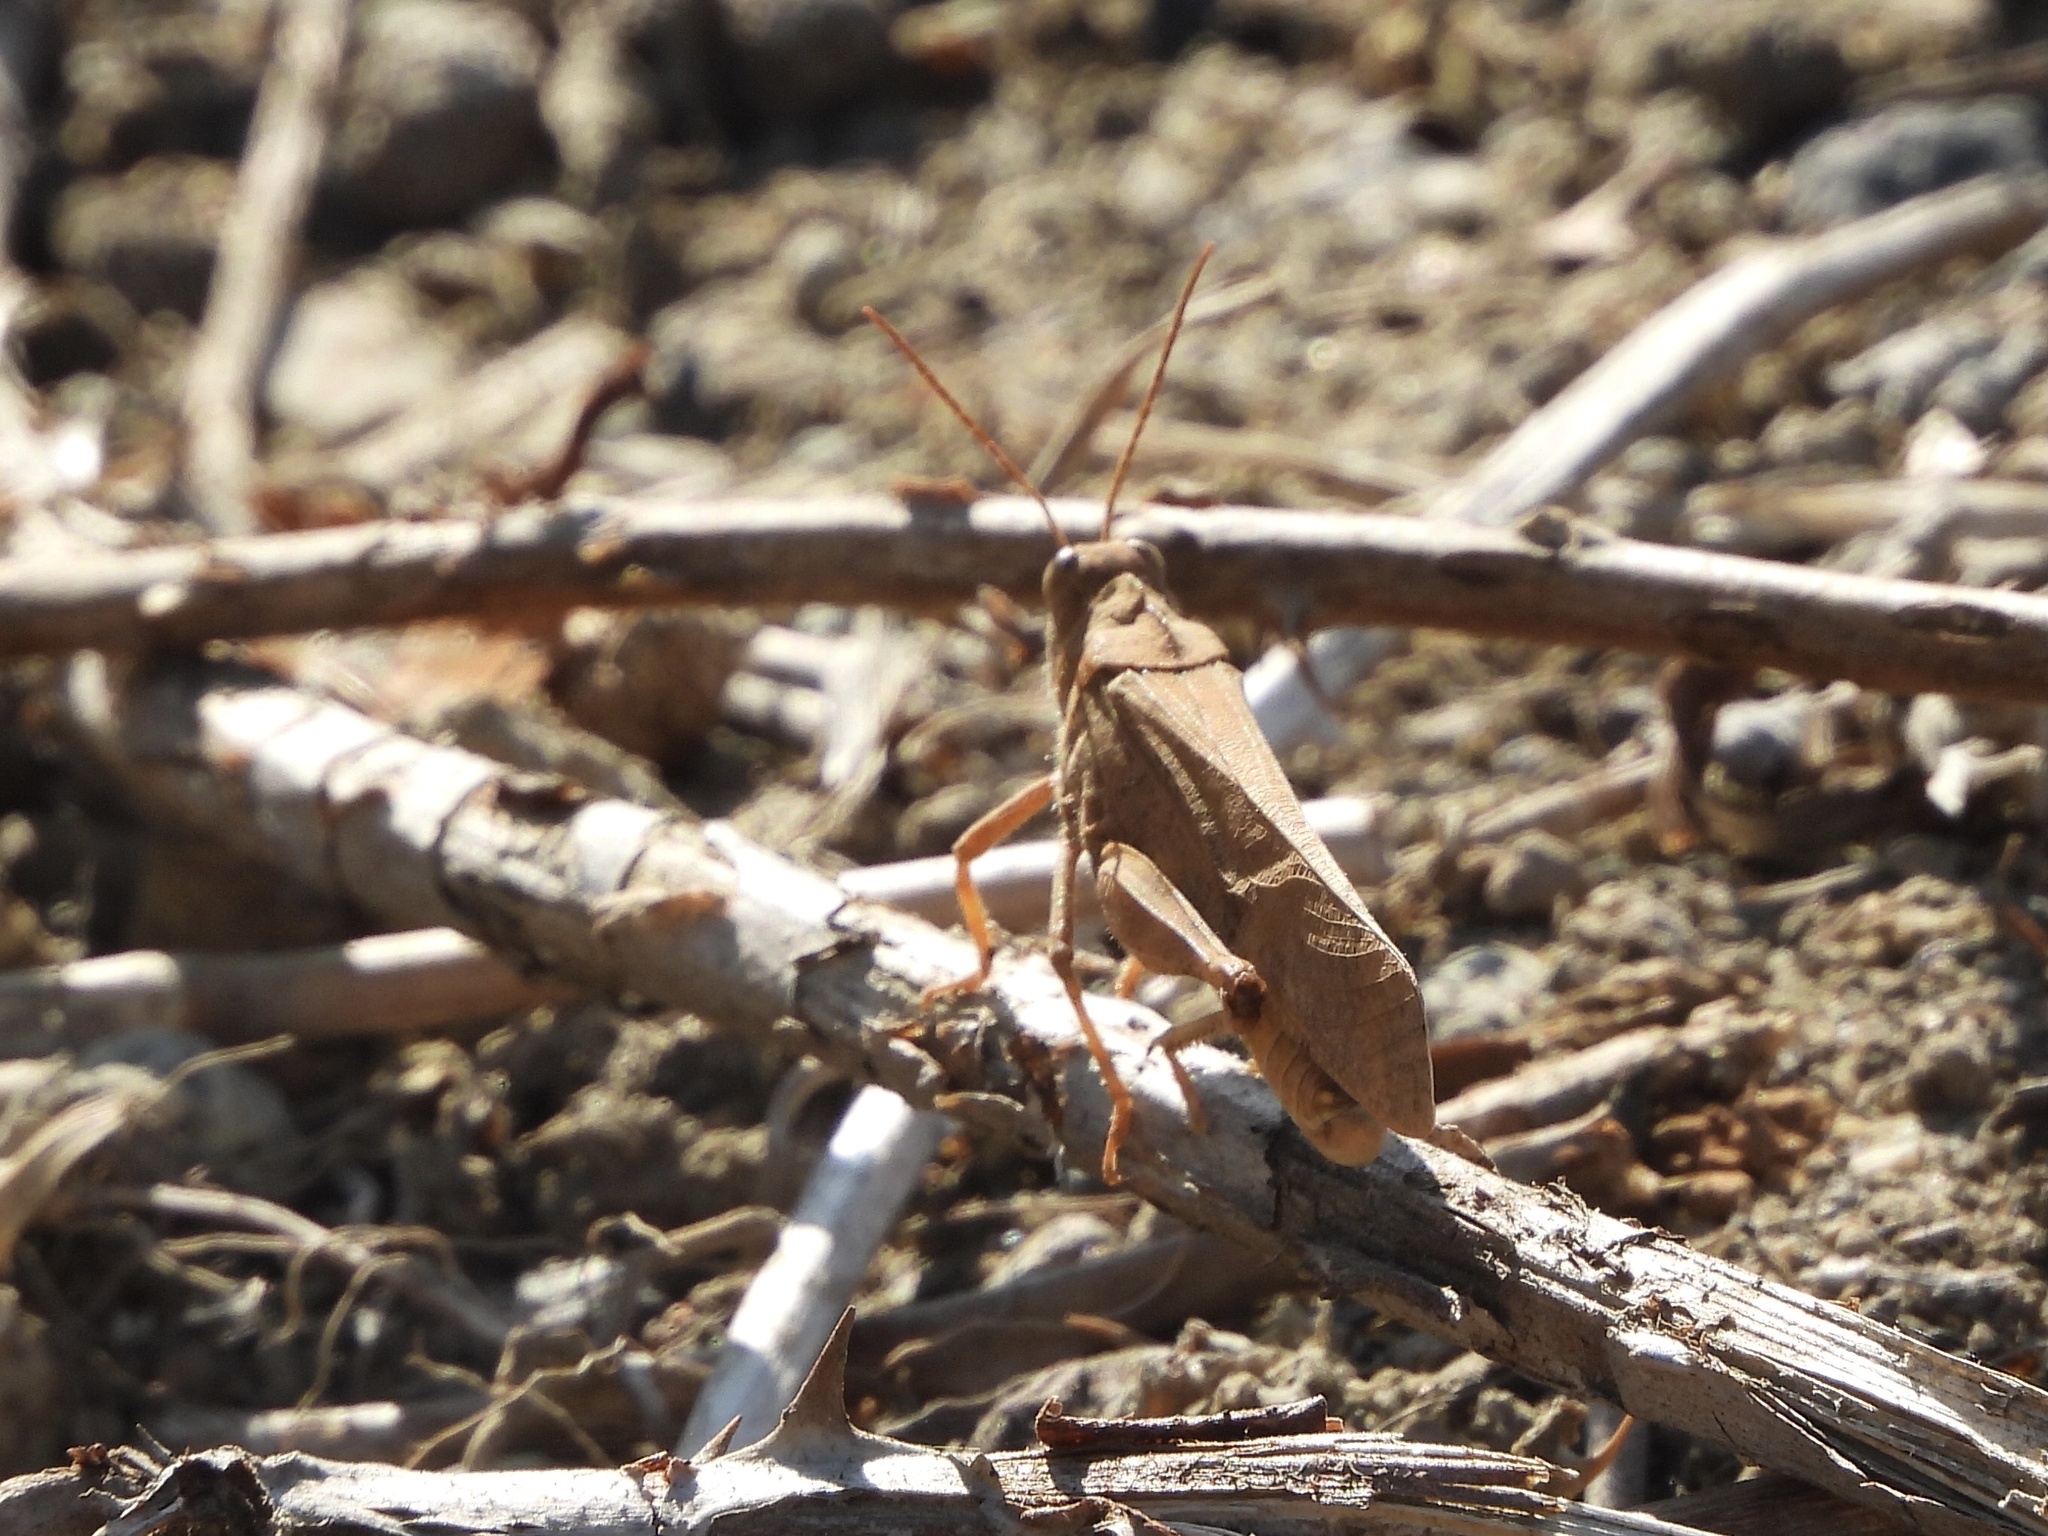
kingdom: Animalia
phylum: Arthropoda
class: Insecta
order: Orthoptera
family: Acrididae
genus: Dissosteira
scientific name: Dissosteira carolina
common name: Carolina grasshopper
